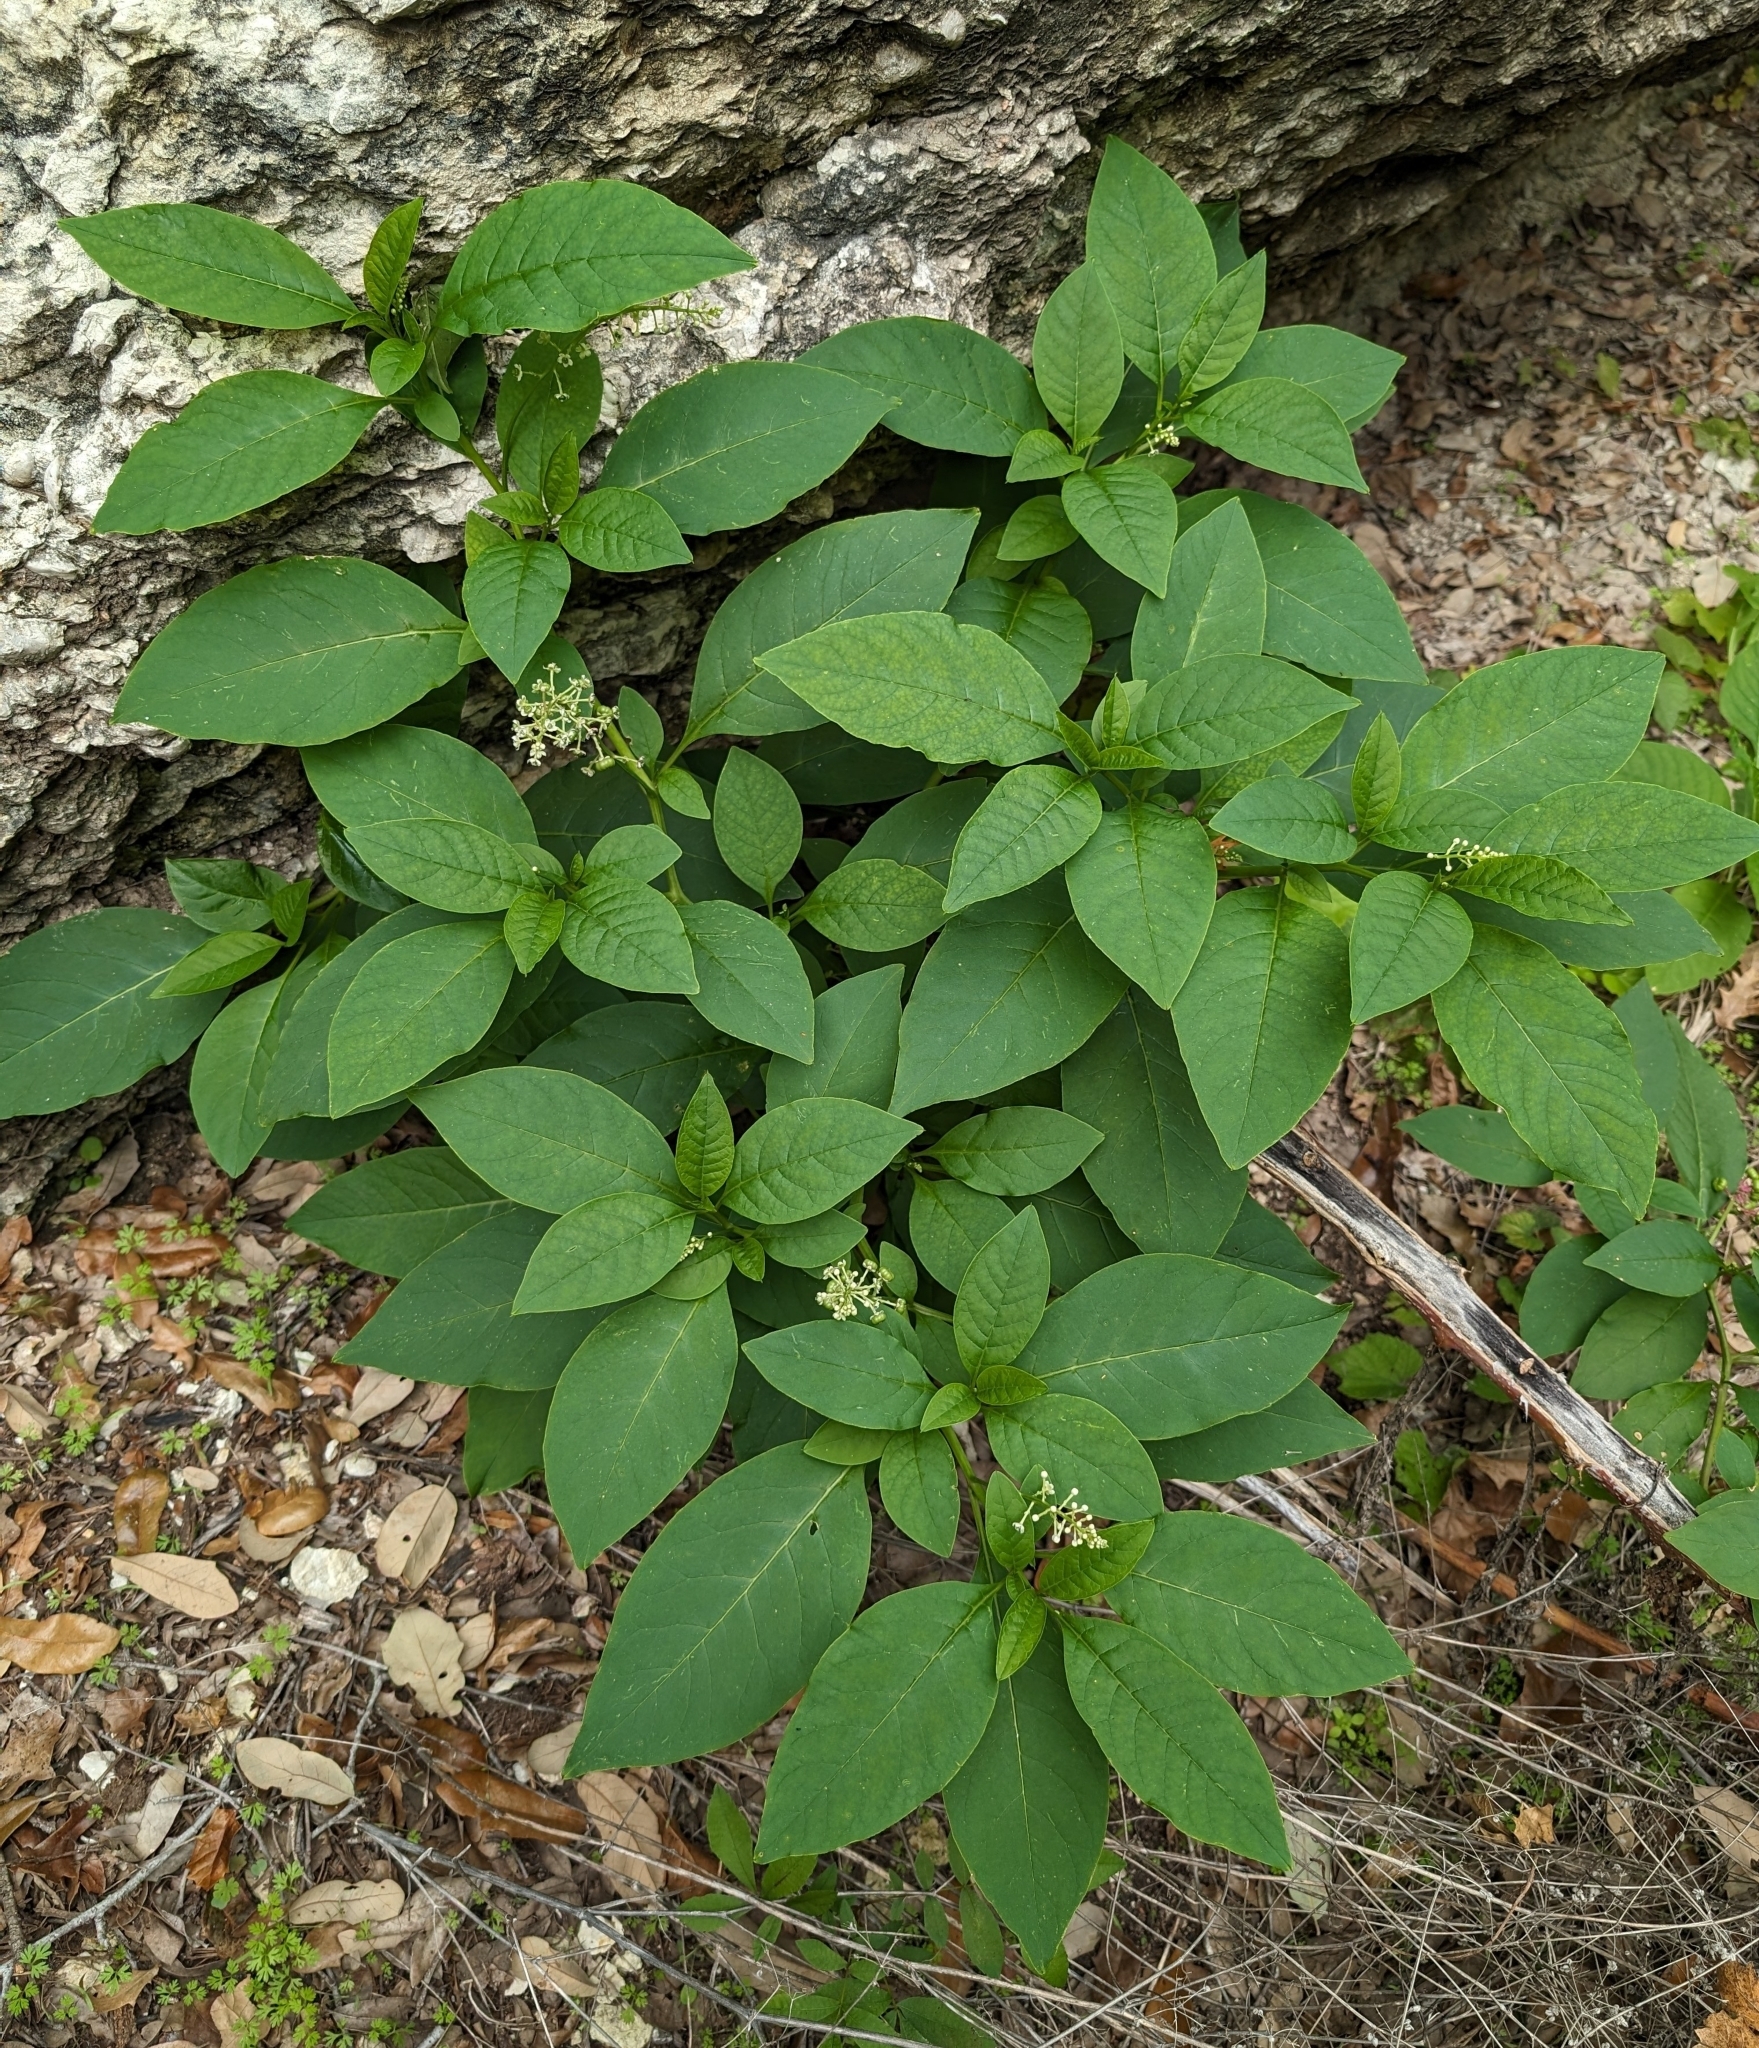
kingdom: Plantae
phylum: Tracheophyta
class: Magnoliopsida
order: Caryophyllales
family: Phytolaccaceae
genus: Phytolacca
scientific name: Phytolacca americana
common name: American pokeweed
